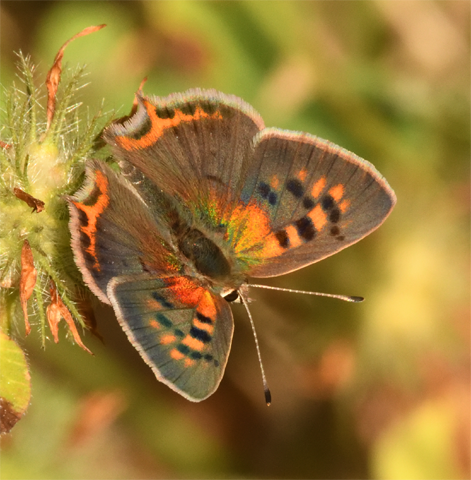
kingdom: Animalia
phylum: Arthropoda
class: Insecta
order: Lepidoptera
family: Lycaenidae
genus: Lycaena
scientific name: Lycaena phlaeas
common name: Small copper
